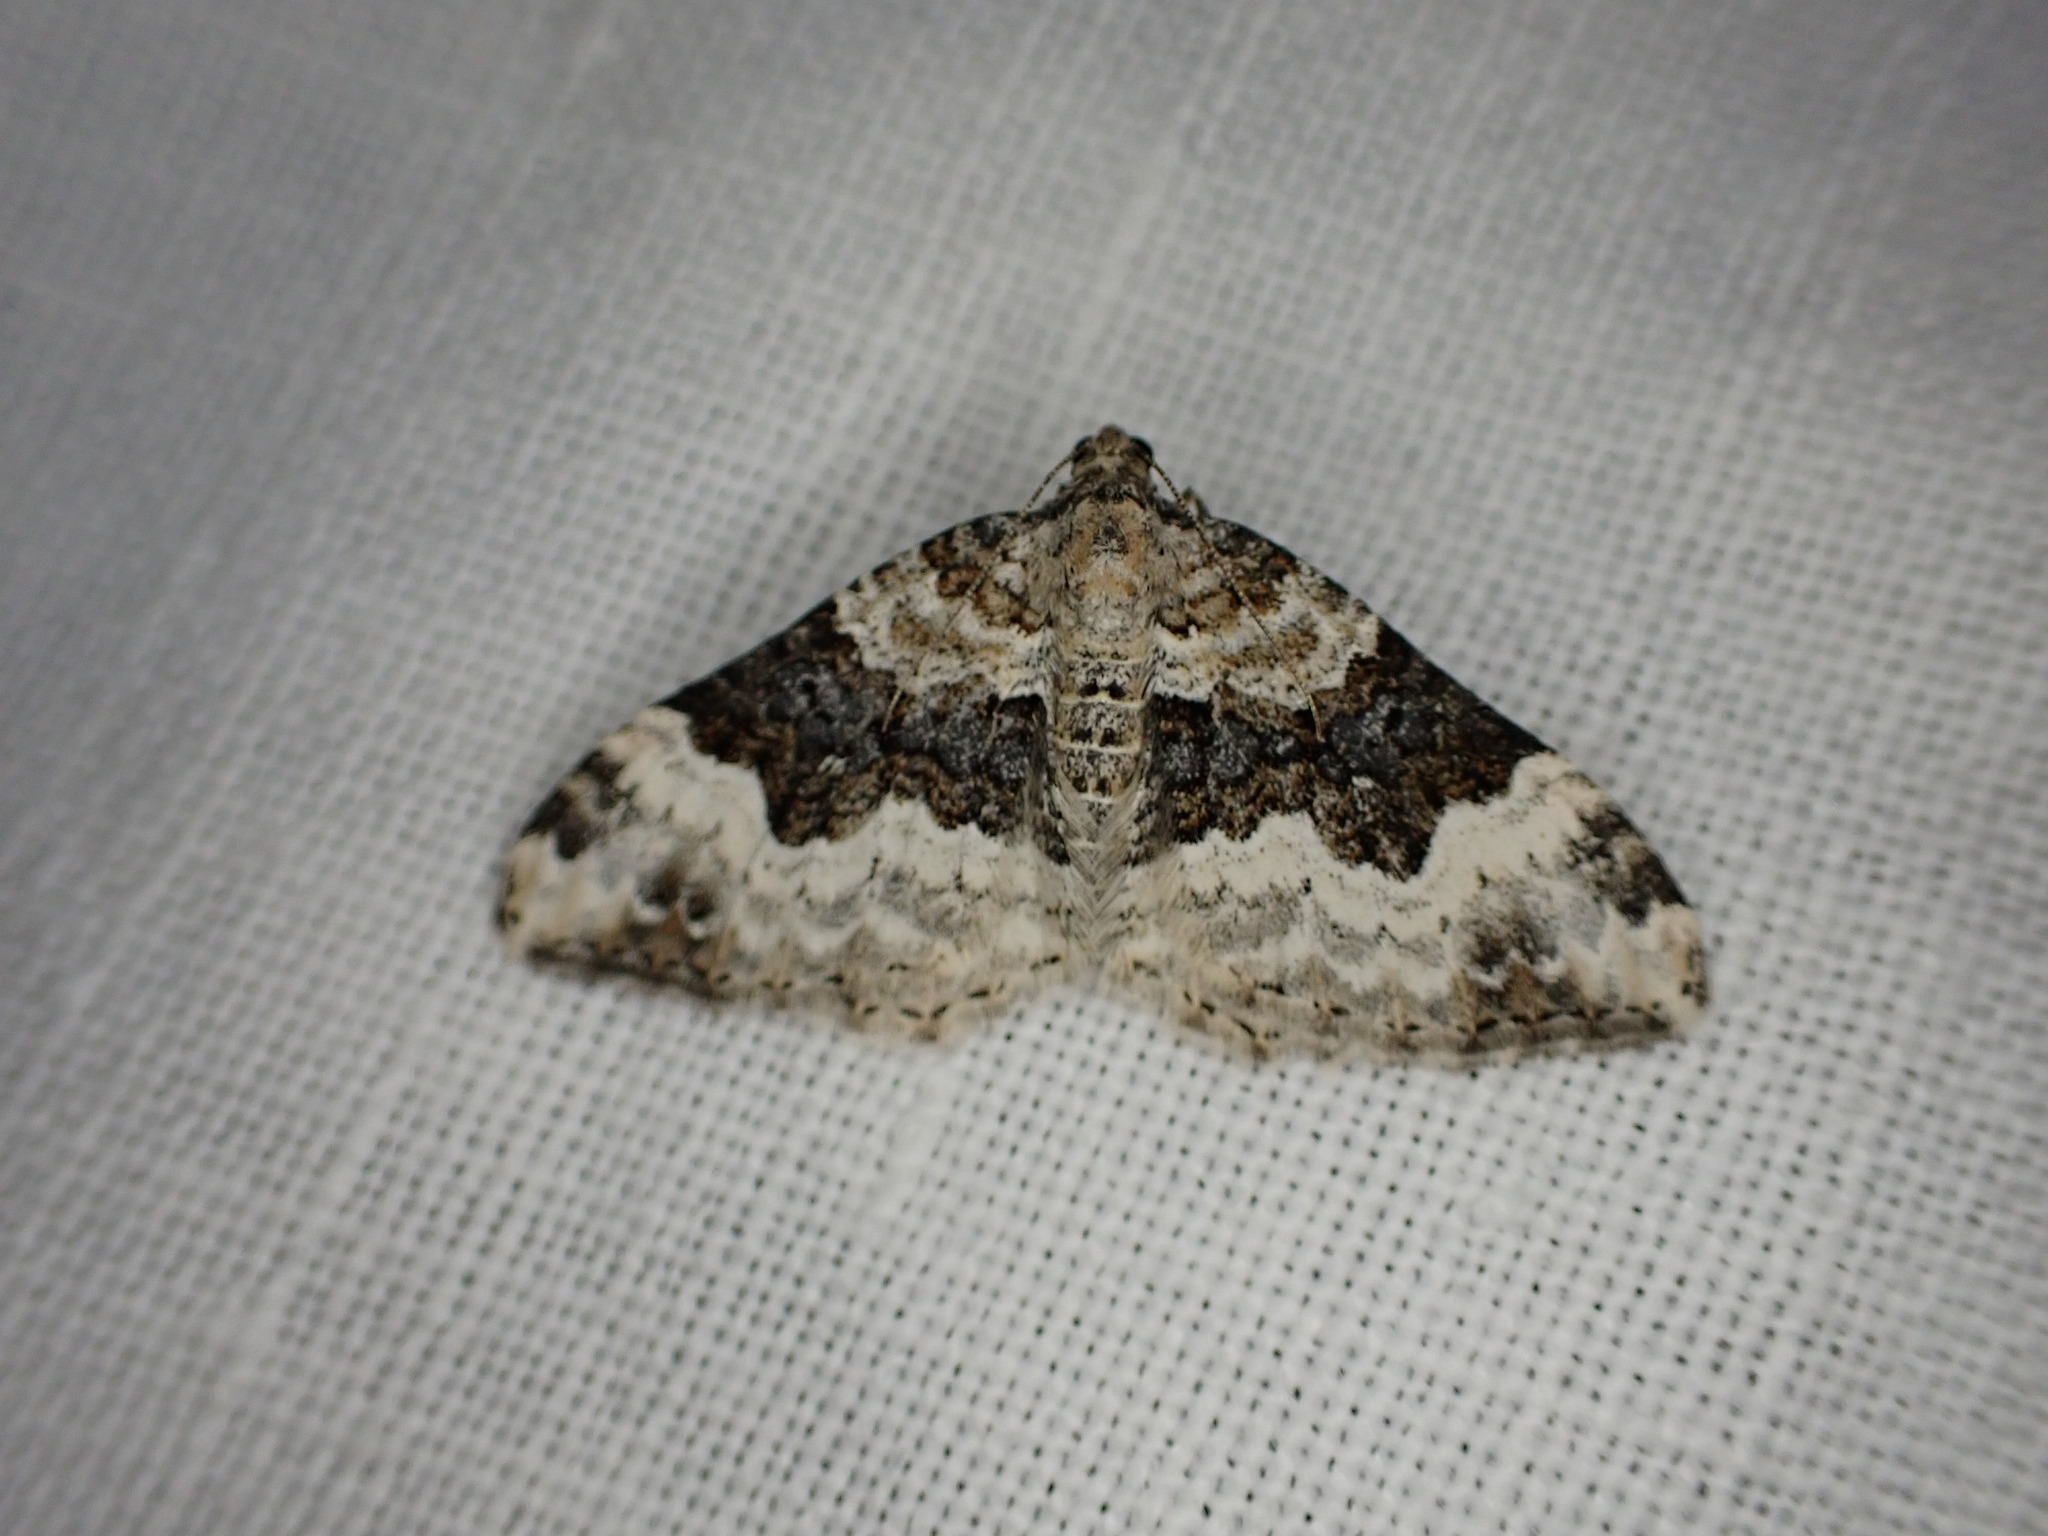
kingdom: Animalia
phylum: Arthropoda
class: Insecta
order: Lepidoptera
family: Geometridae
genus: Epirrhoe
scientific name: Epirrhoe galiata
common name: Galium carpet
